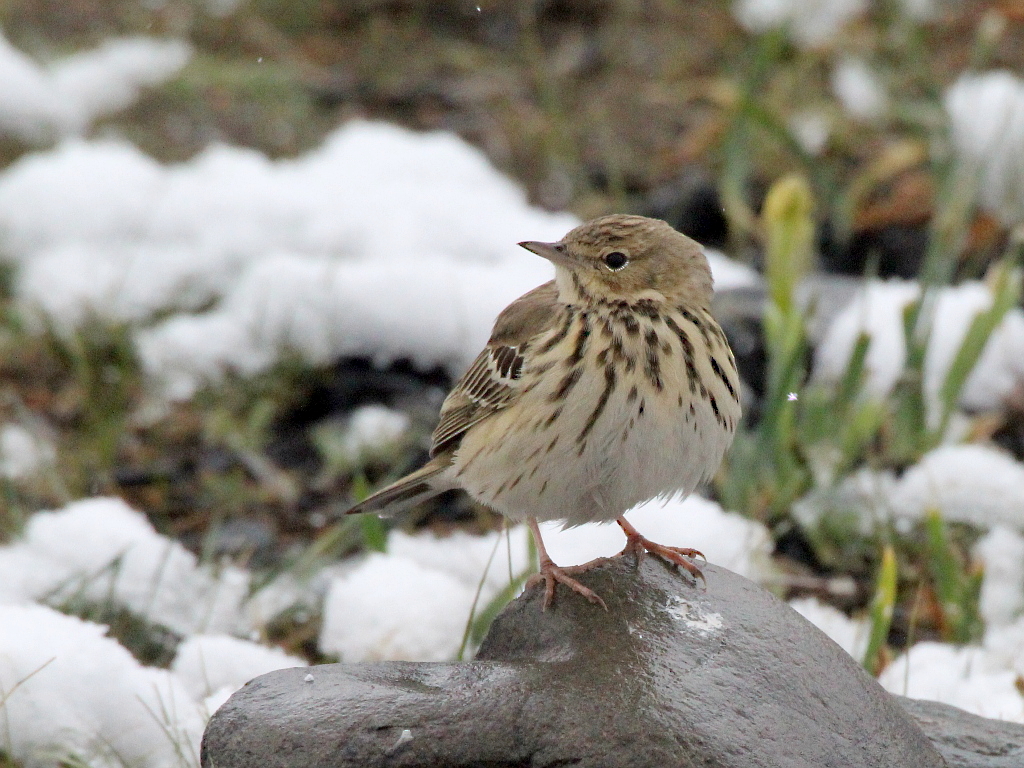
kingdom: Animalia
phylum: Chordata
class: Aves
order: Passeriformes
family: Motacillidae
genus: Anthus
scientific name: Anthus trivialis
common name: Tree pipit
